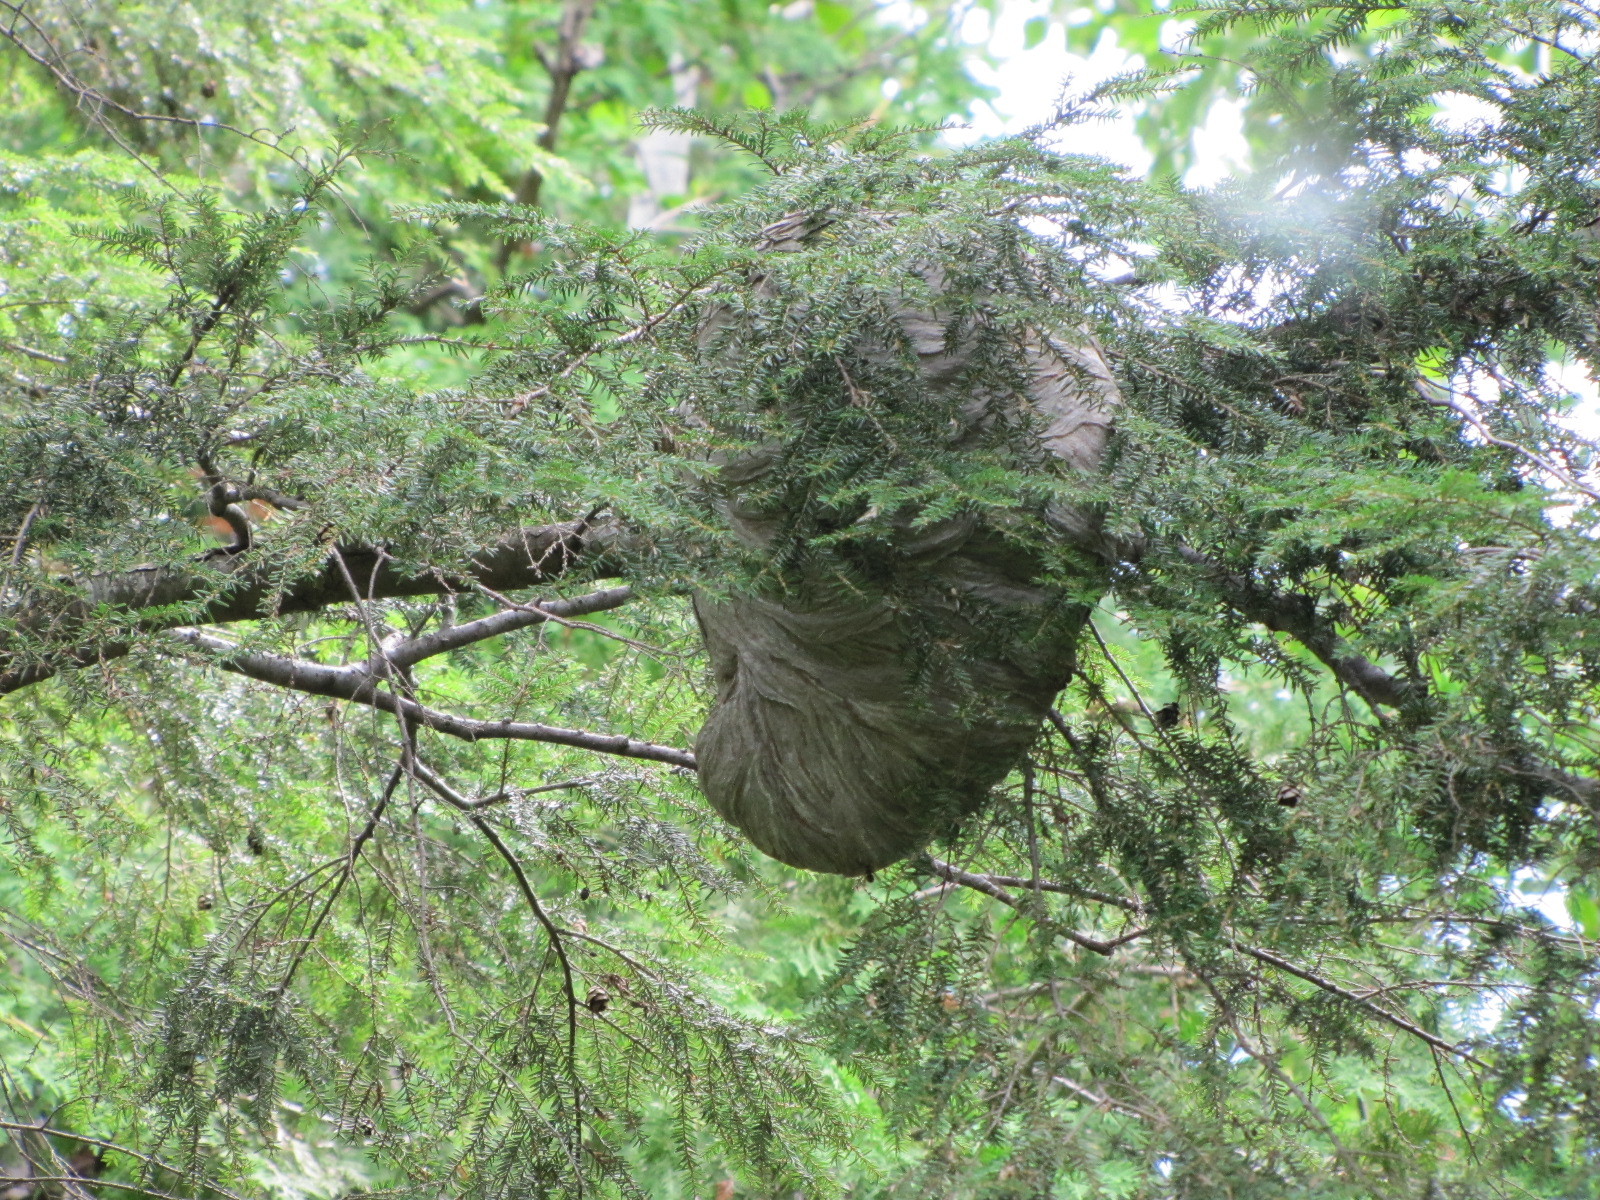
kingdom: Animalia
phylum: Arthropoda
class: Insecta
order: Hymenoptera
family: Vespidae
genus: Dolichovespula
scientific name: Dolichovespula maculata
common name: Bald-faced hornet
